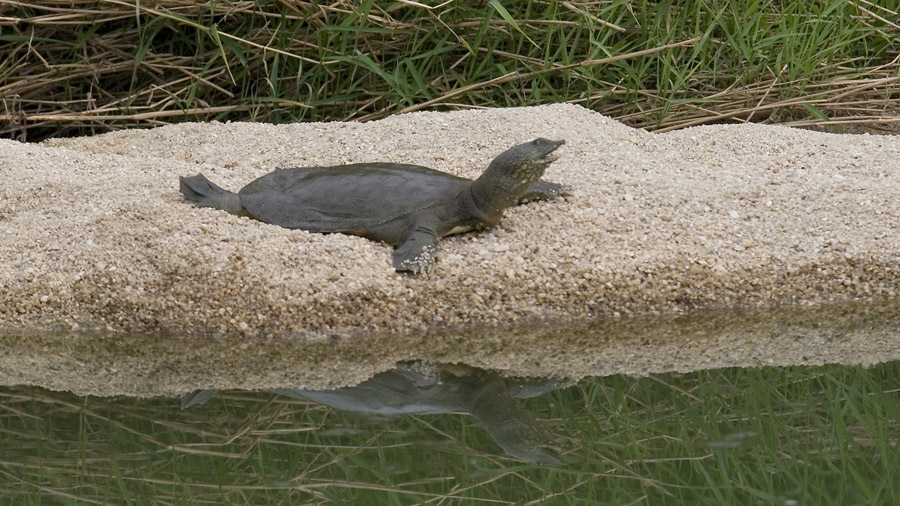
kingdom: Animalia
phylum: Chordata
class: Testudines
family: Trionychidae
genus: Pelodiscus
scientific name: Pelodiscus maackii
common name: Northern chinese softshell turtle
